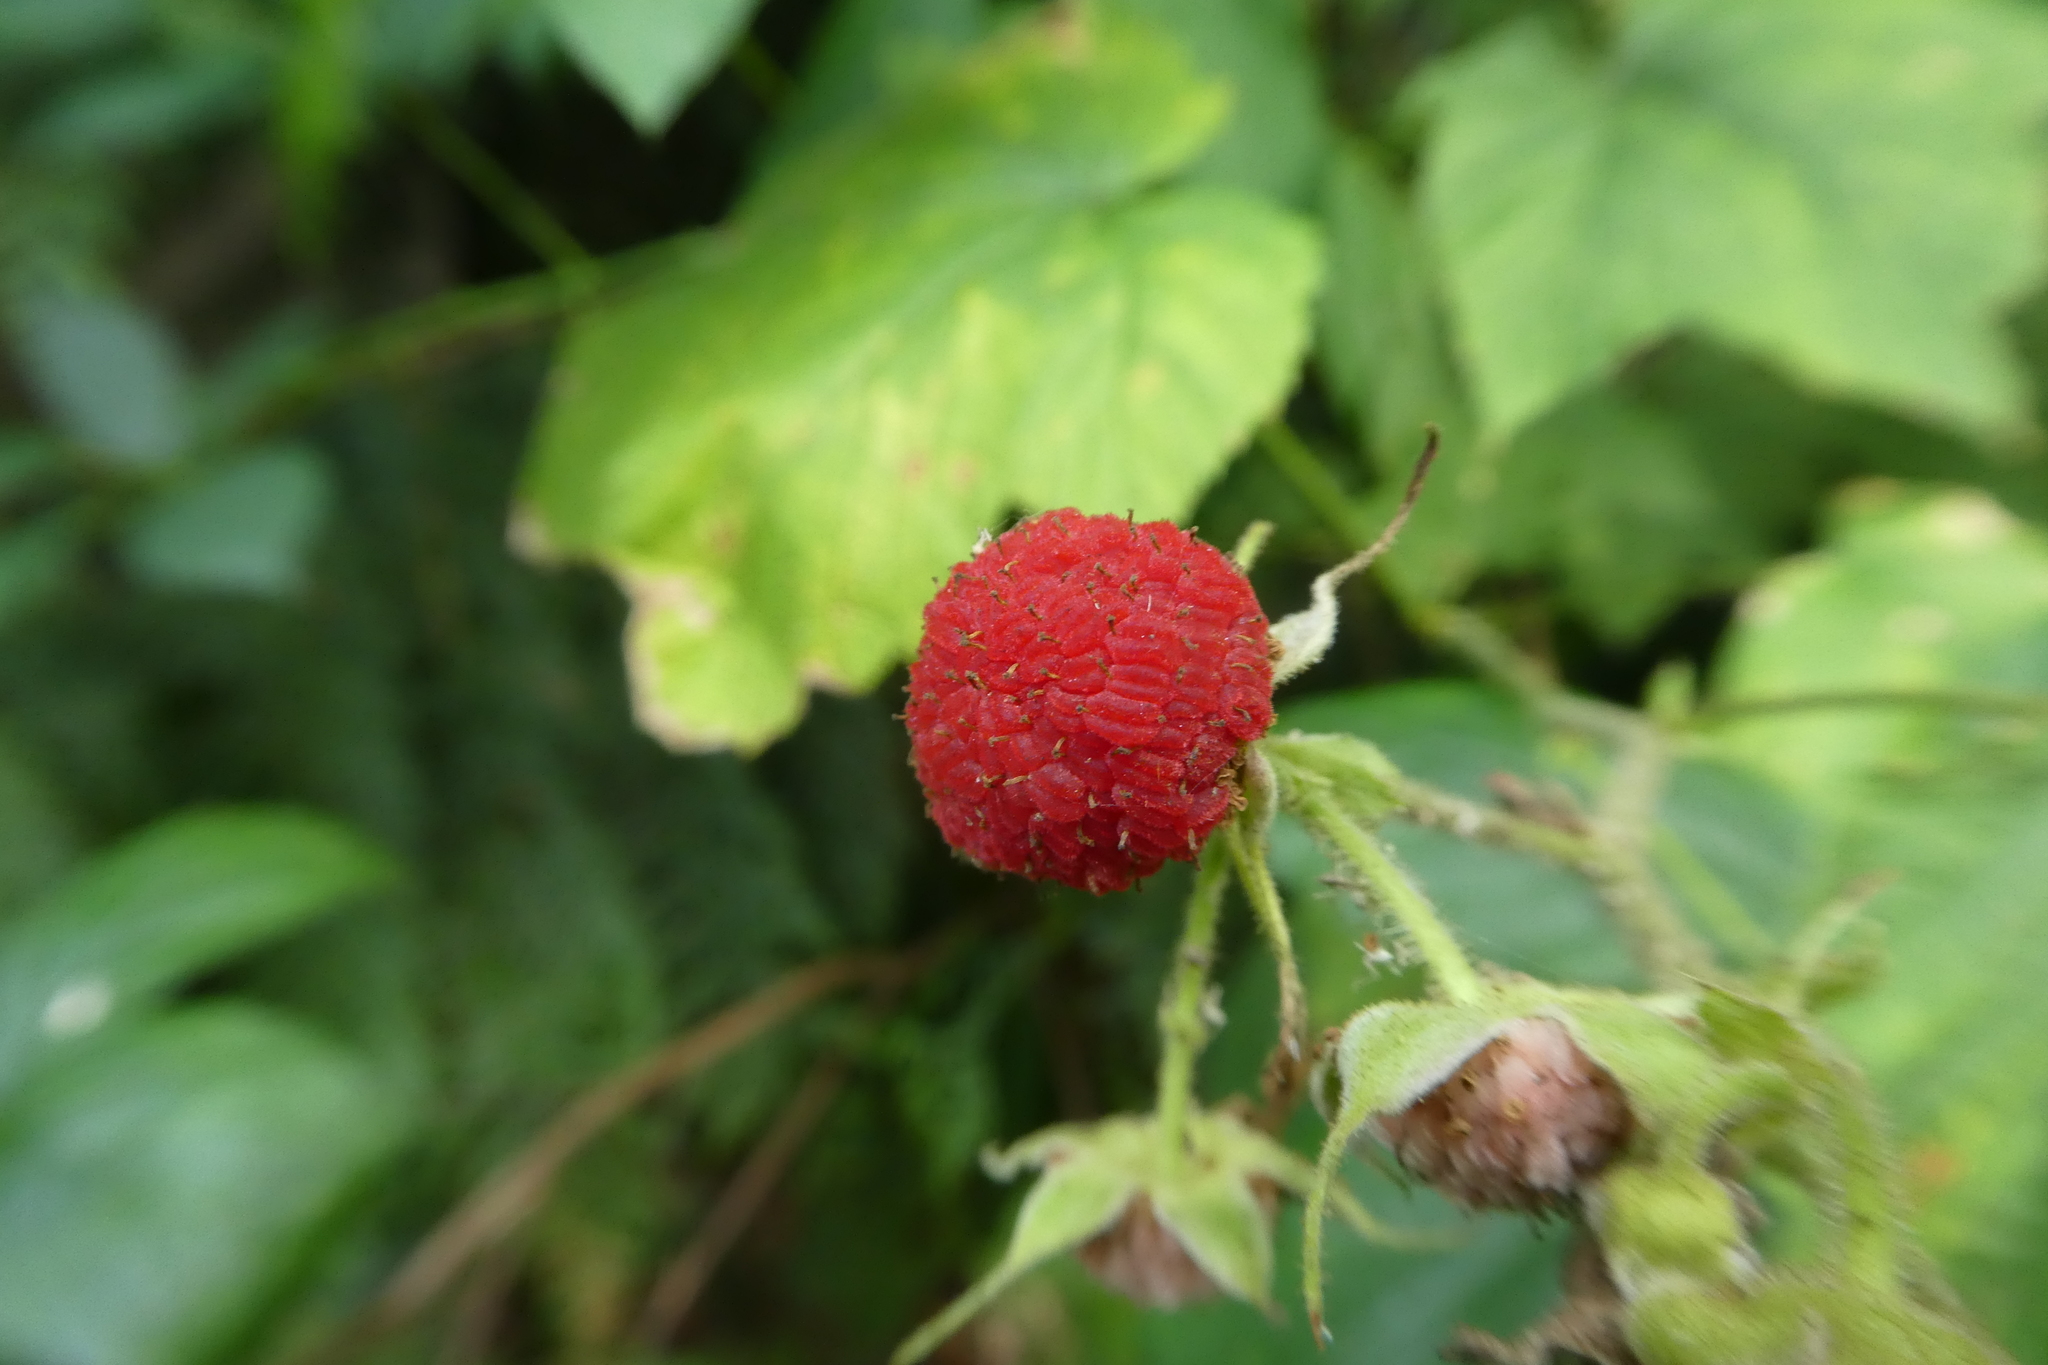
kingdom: Plantae
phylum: Tracheophyta
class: Magnoliopsida
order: Rosales
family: Rosaceae
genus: Rubus
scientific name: Rubus parviflorus
